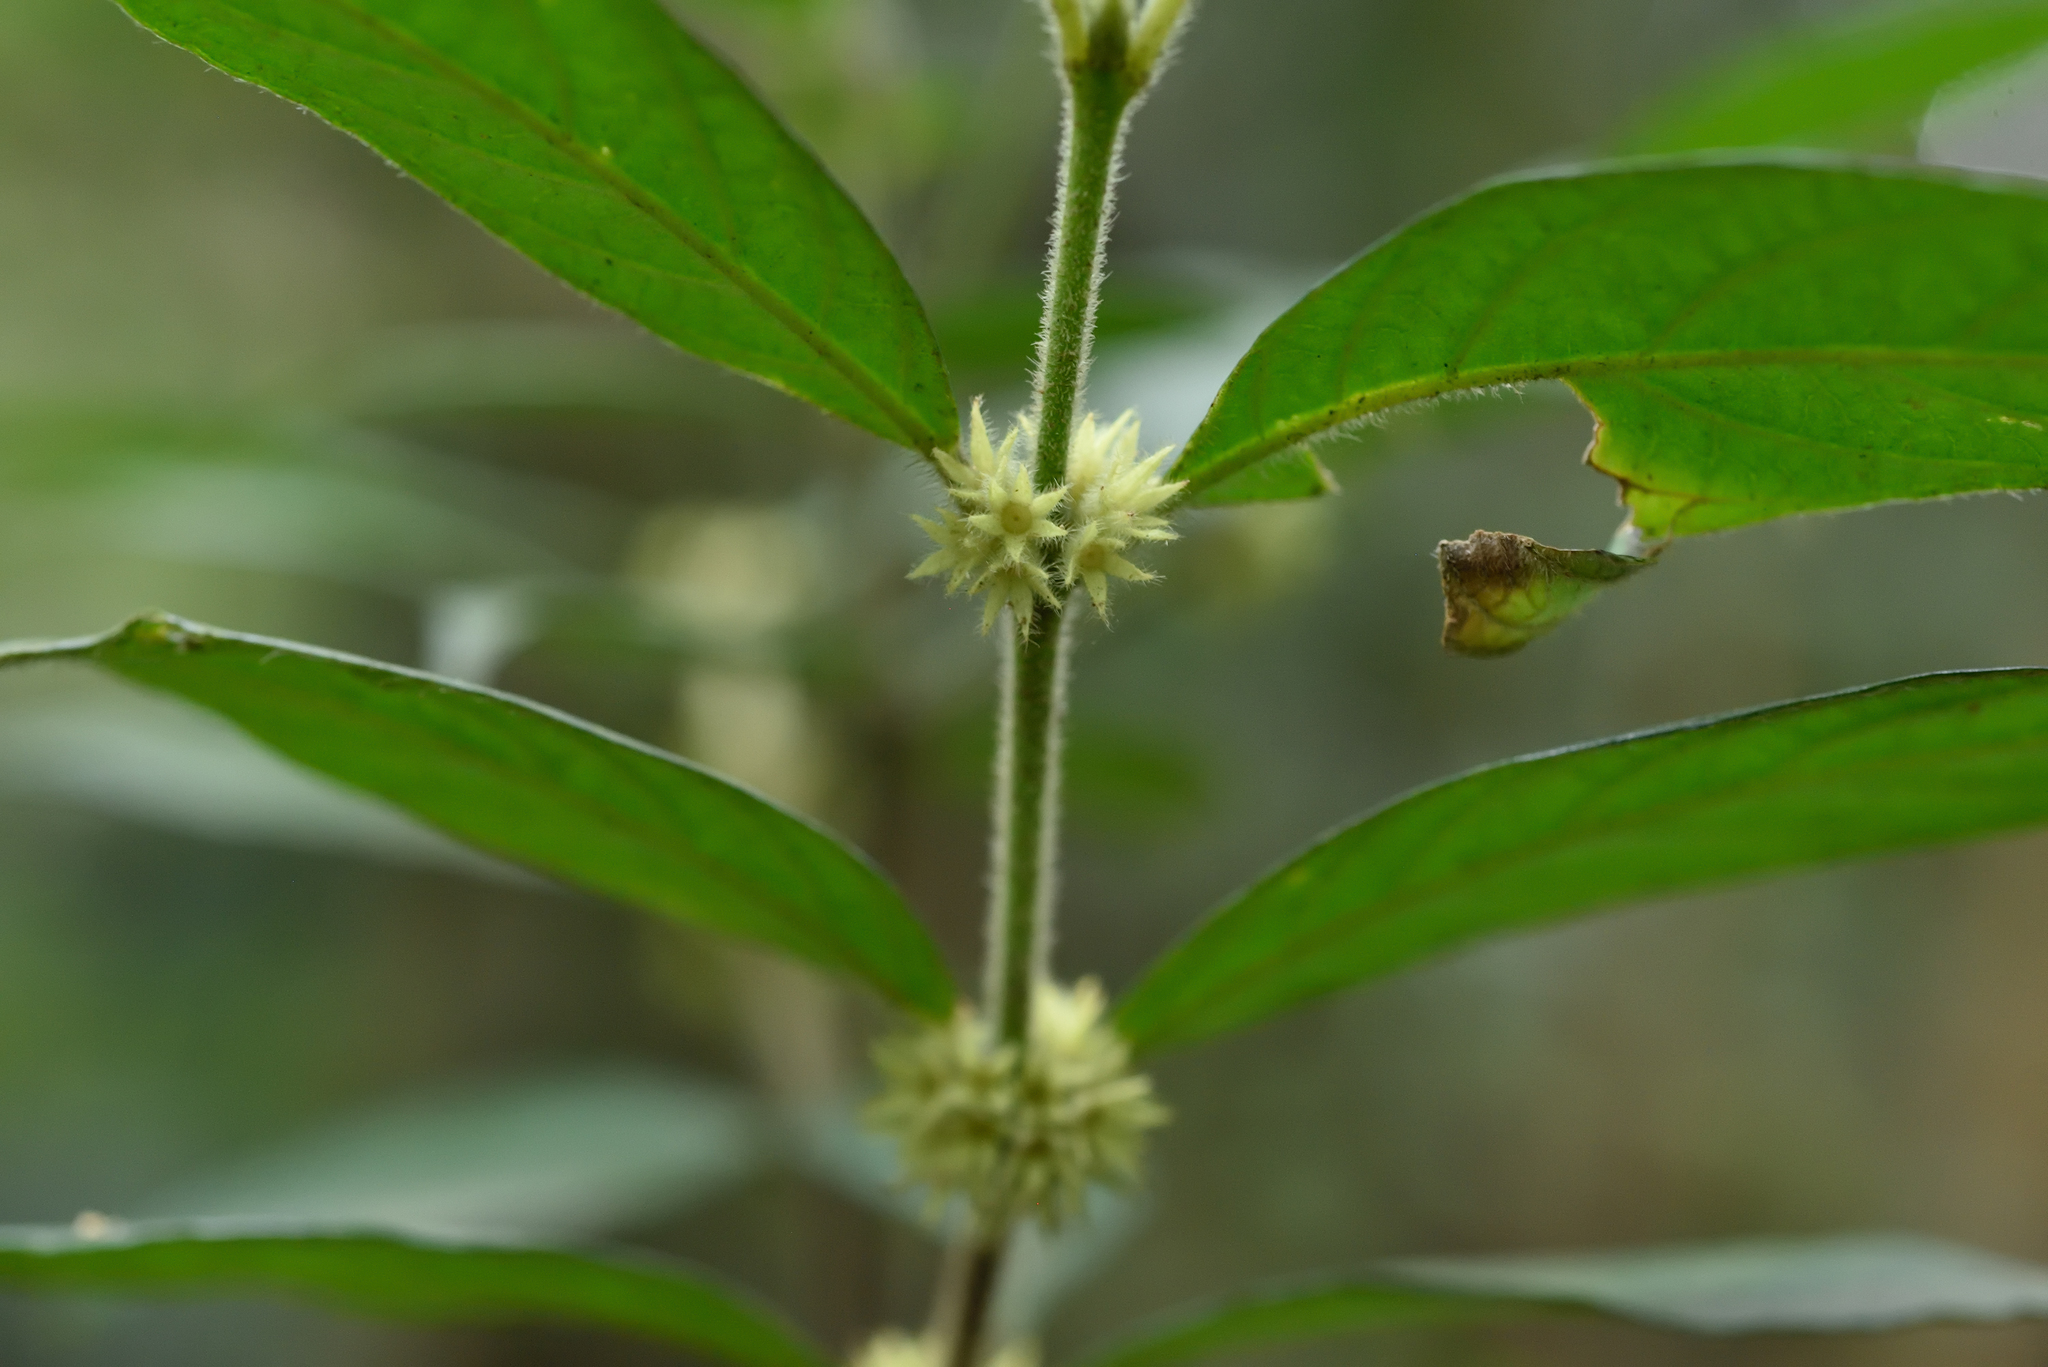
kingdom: Plantae
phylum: Tracheophyta
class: Magnoliopsida
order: Gentianales
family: Rubiaceae
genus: Lasianthus
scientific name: Lasianthus curtisii
